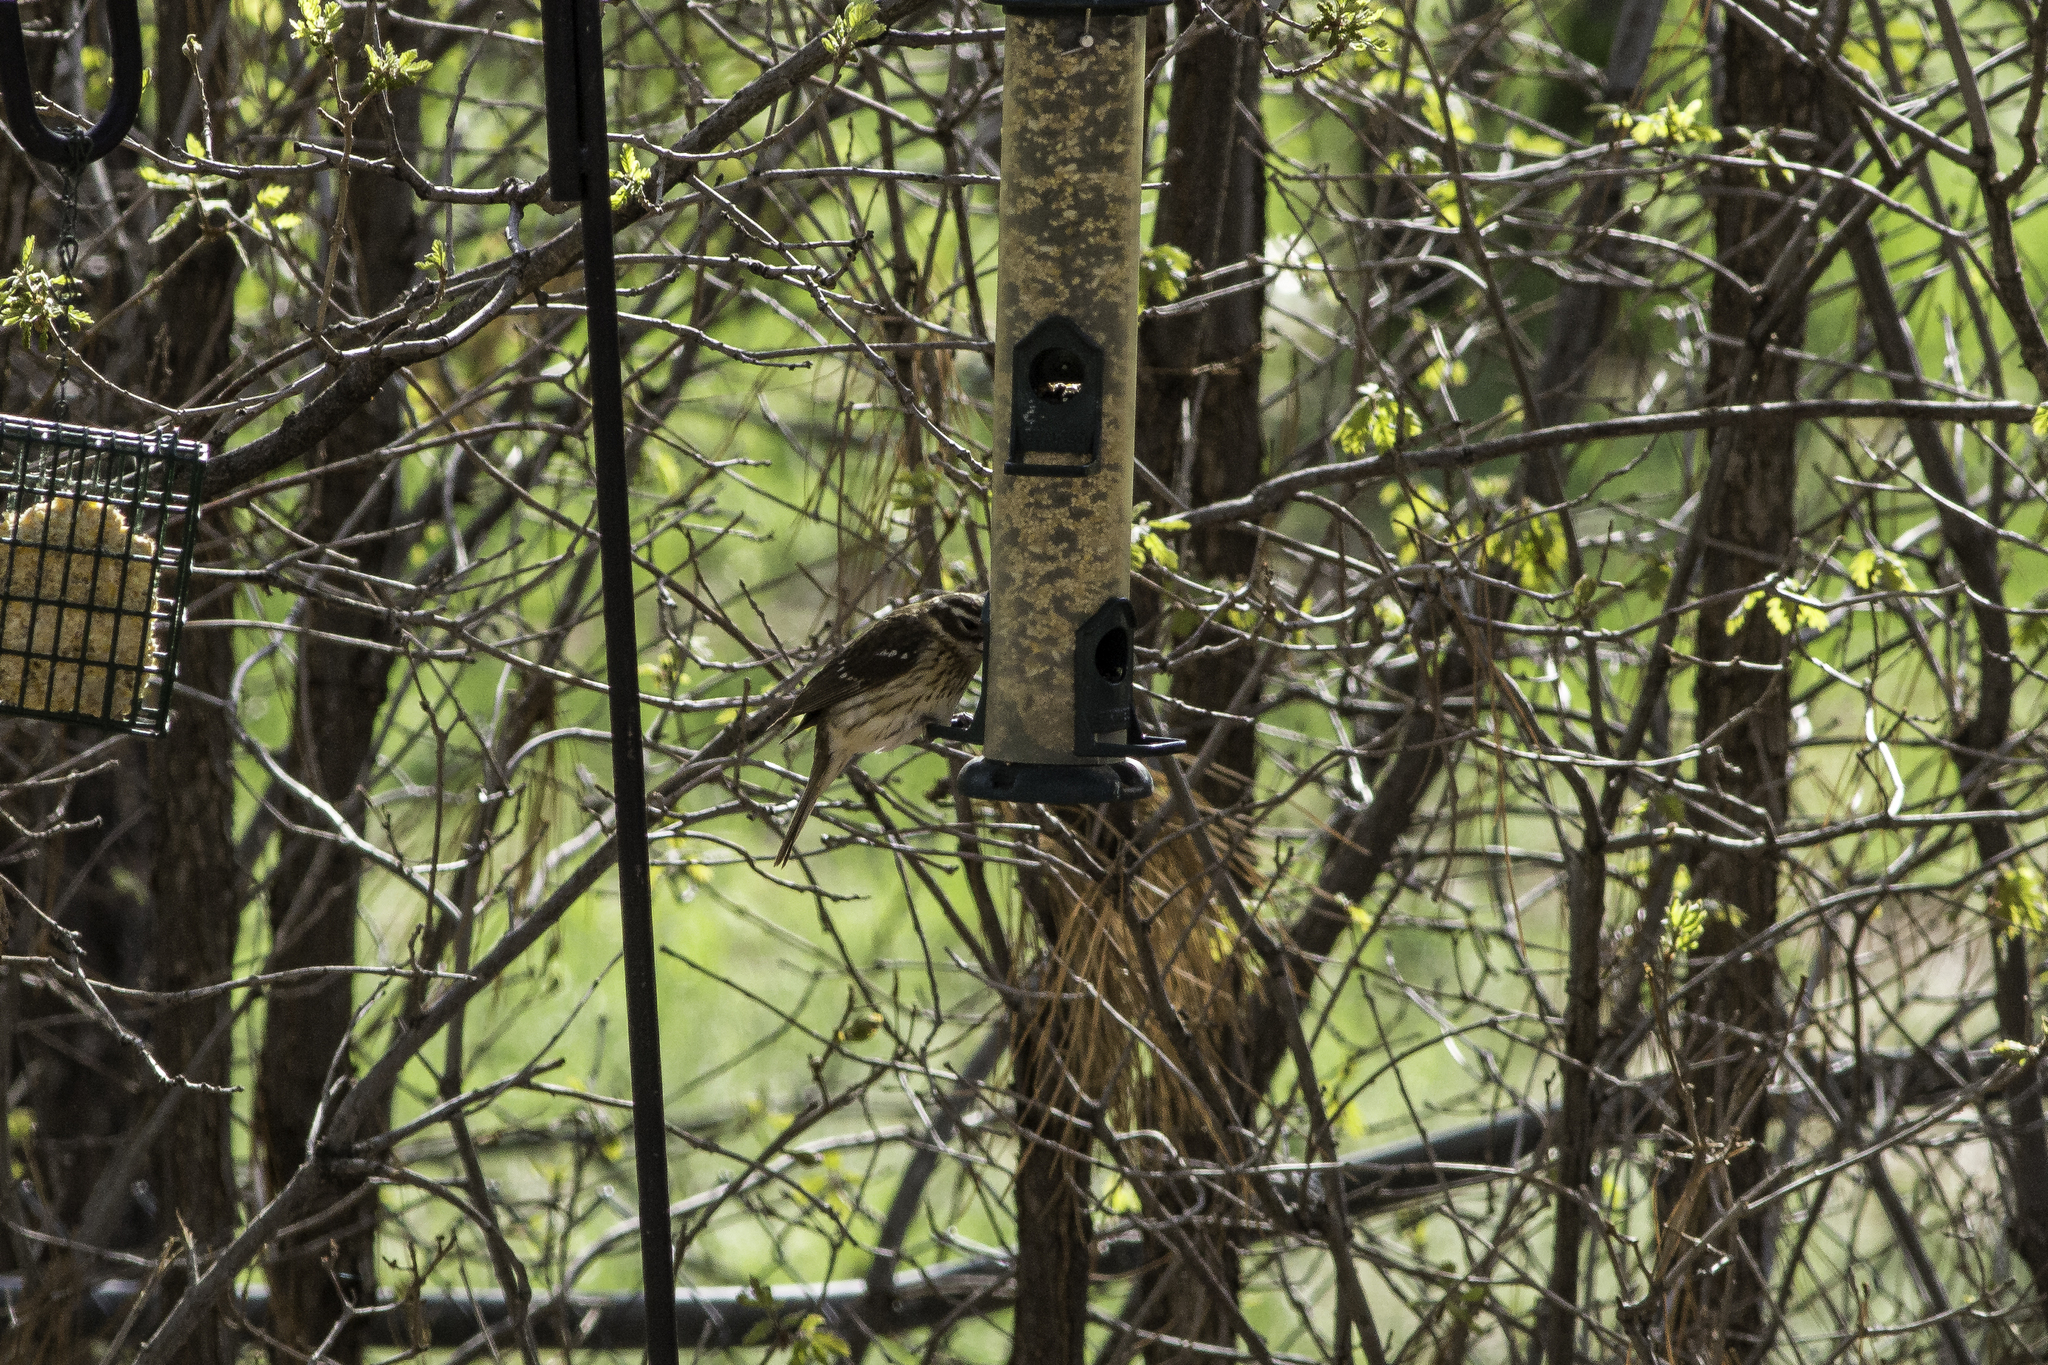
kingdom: Animalia
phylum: Chordata
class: Aves
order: Passeriformes
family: Cardinalidae
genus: Pheucticus
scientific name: Pheucticus ludovicianus
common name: Rose-breasted grosbeak
